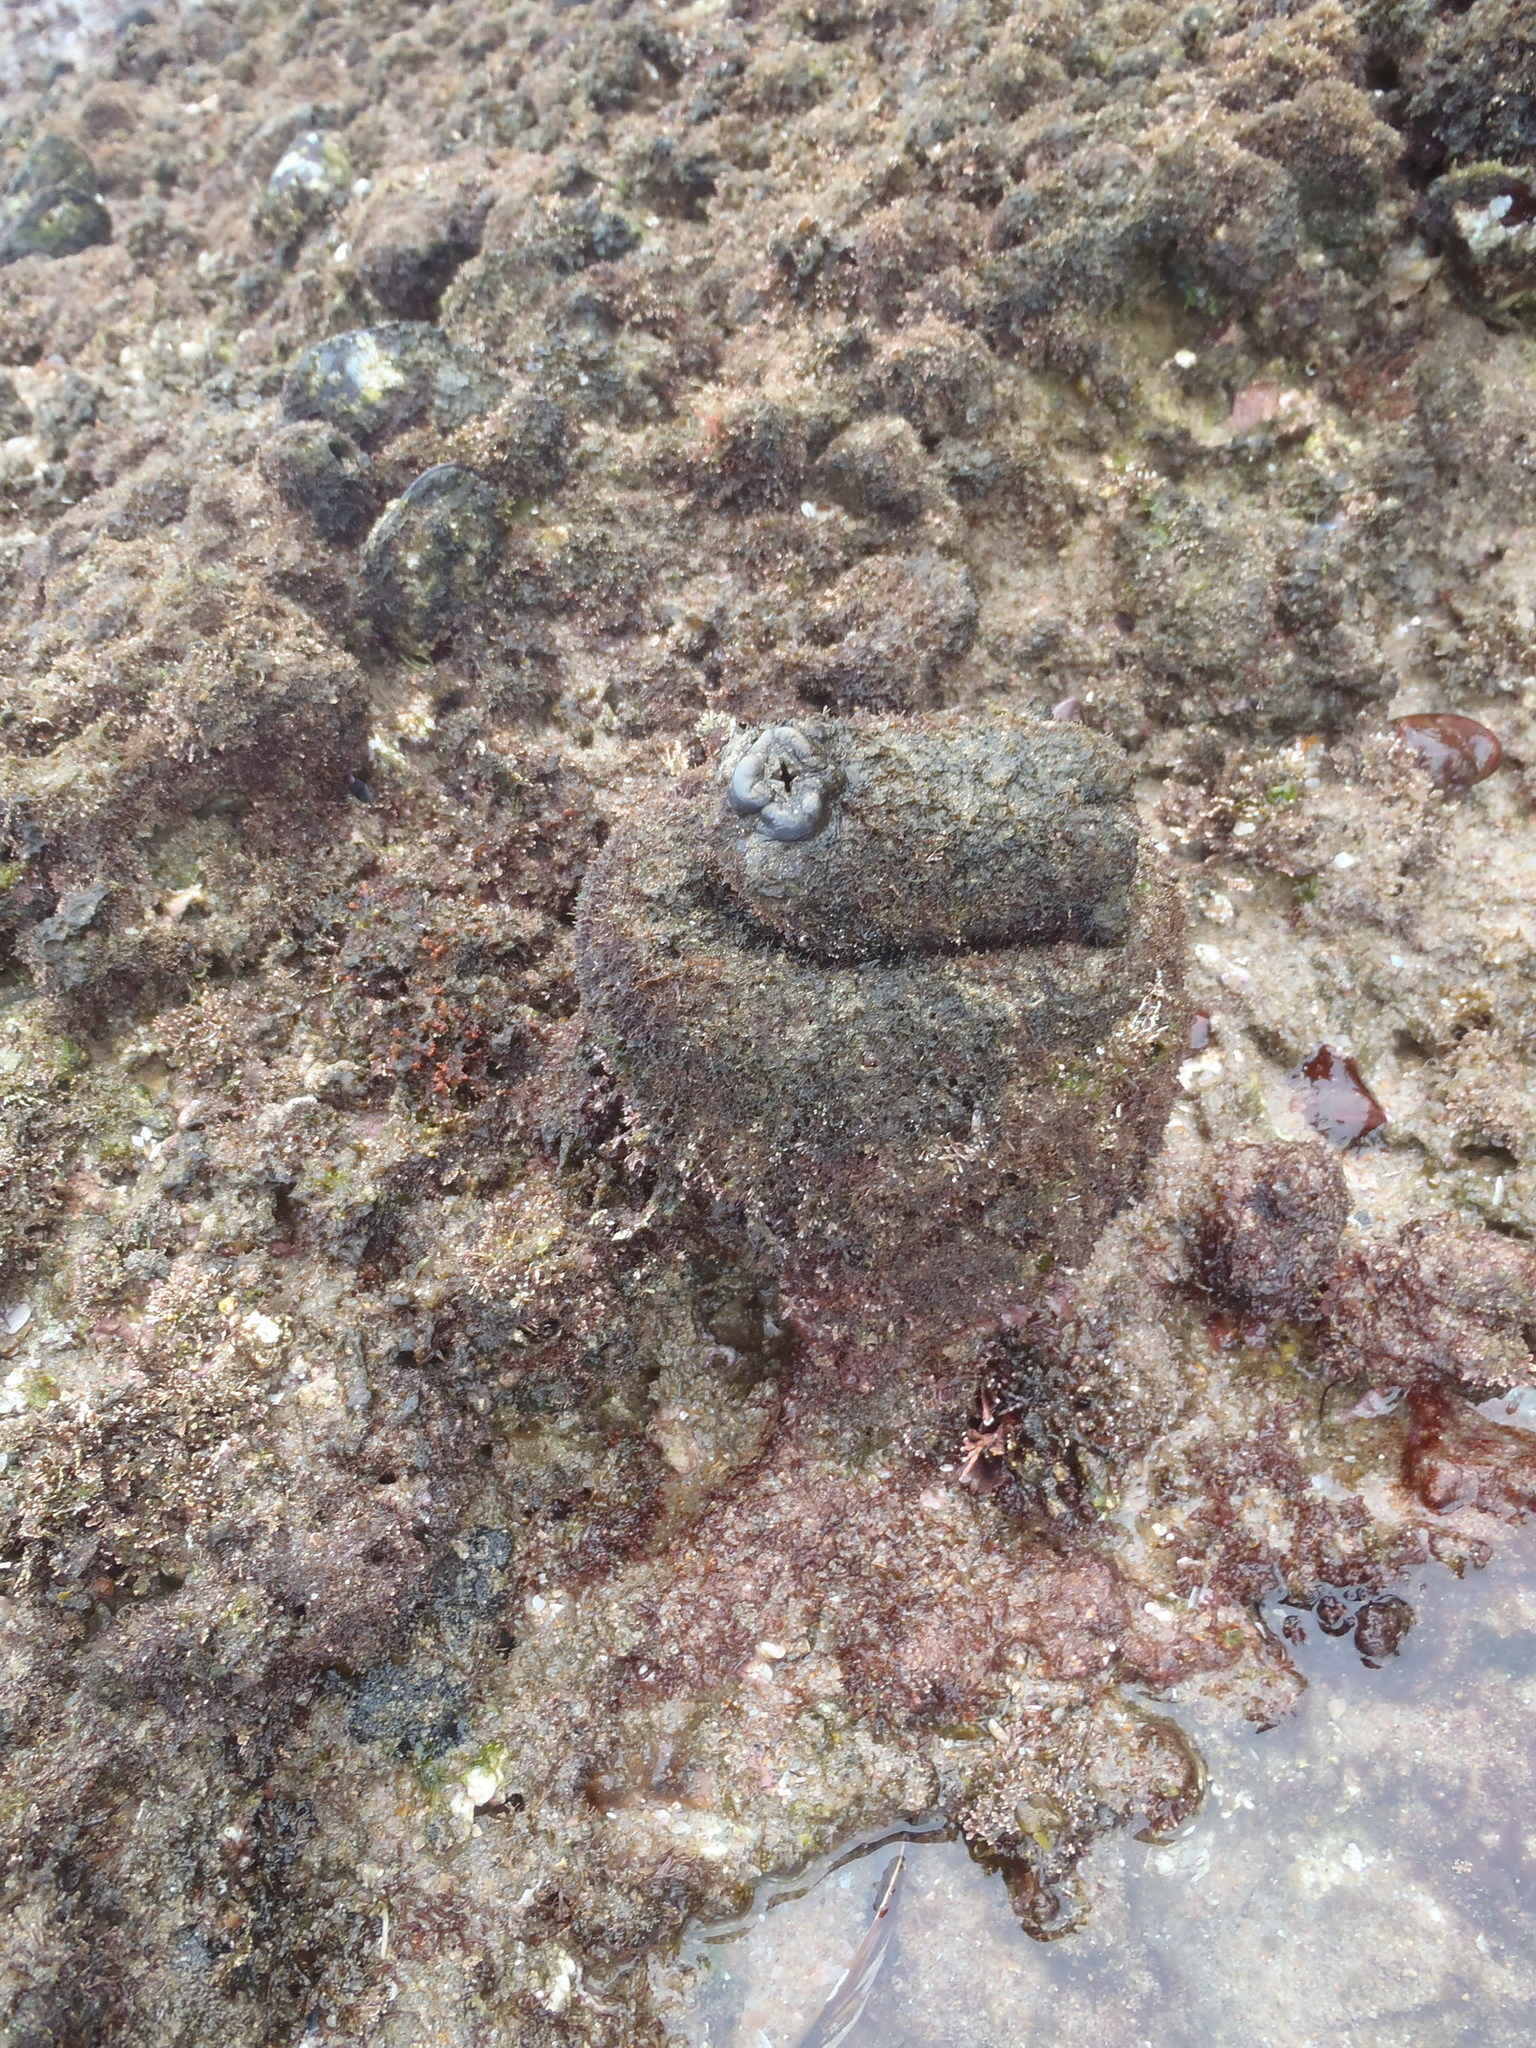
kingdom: Animalia
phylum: Chordata
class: Ascidiacea
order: Stolidobranchia
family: Pyuridae
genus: Pyura
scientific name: Pyura stolonifera
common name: Red bait
